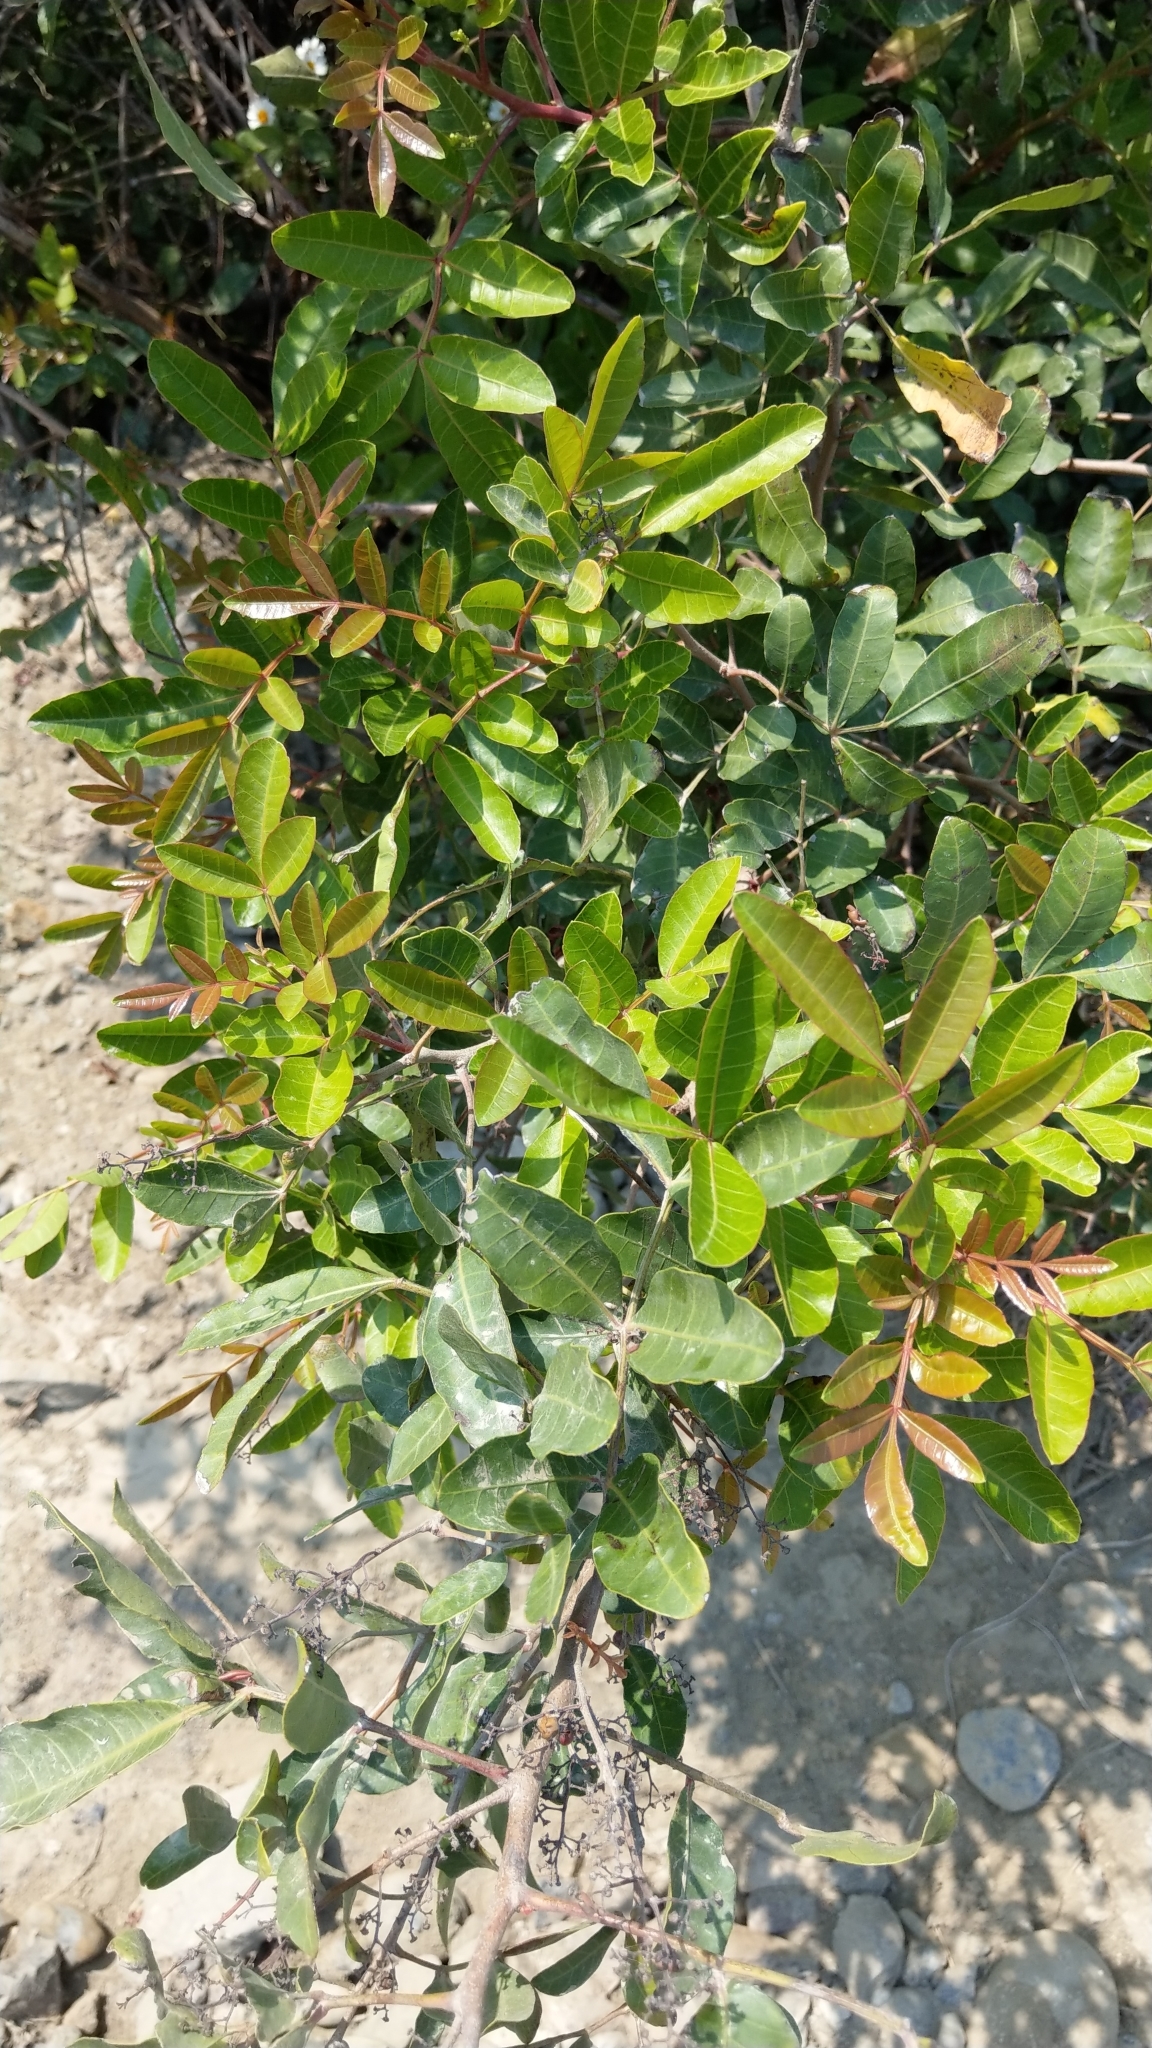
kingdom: Plantae
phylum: Tracheophyta
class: Magnoliopsida
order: Sapindales
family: Anacardiaceae
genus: Schinus
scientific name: Schinus terebinthifolia
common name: Brazilian peppertree
